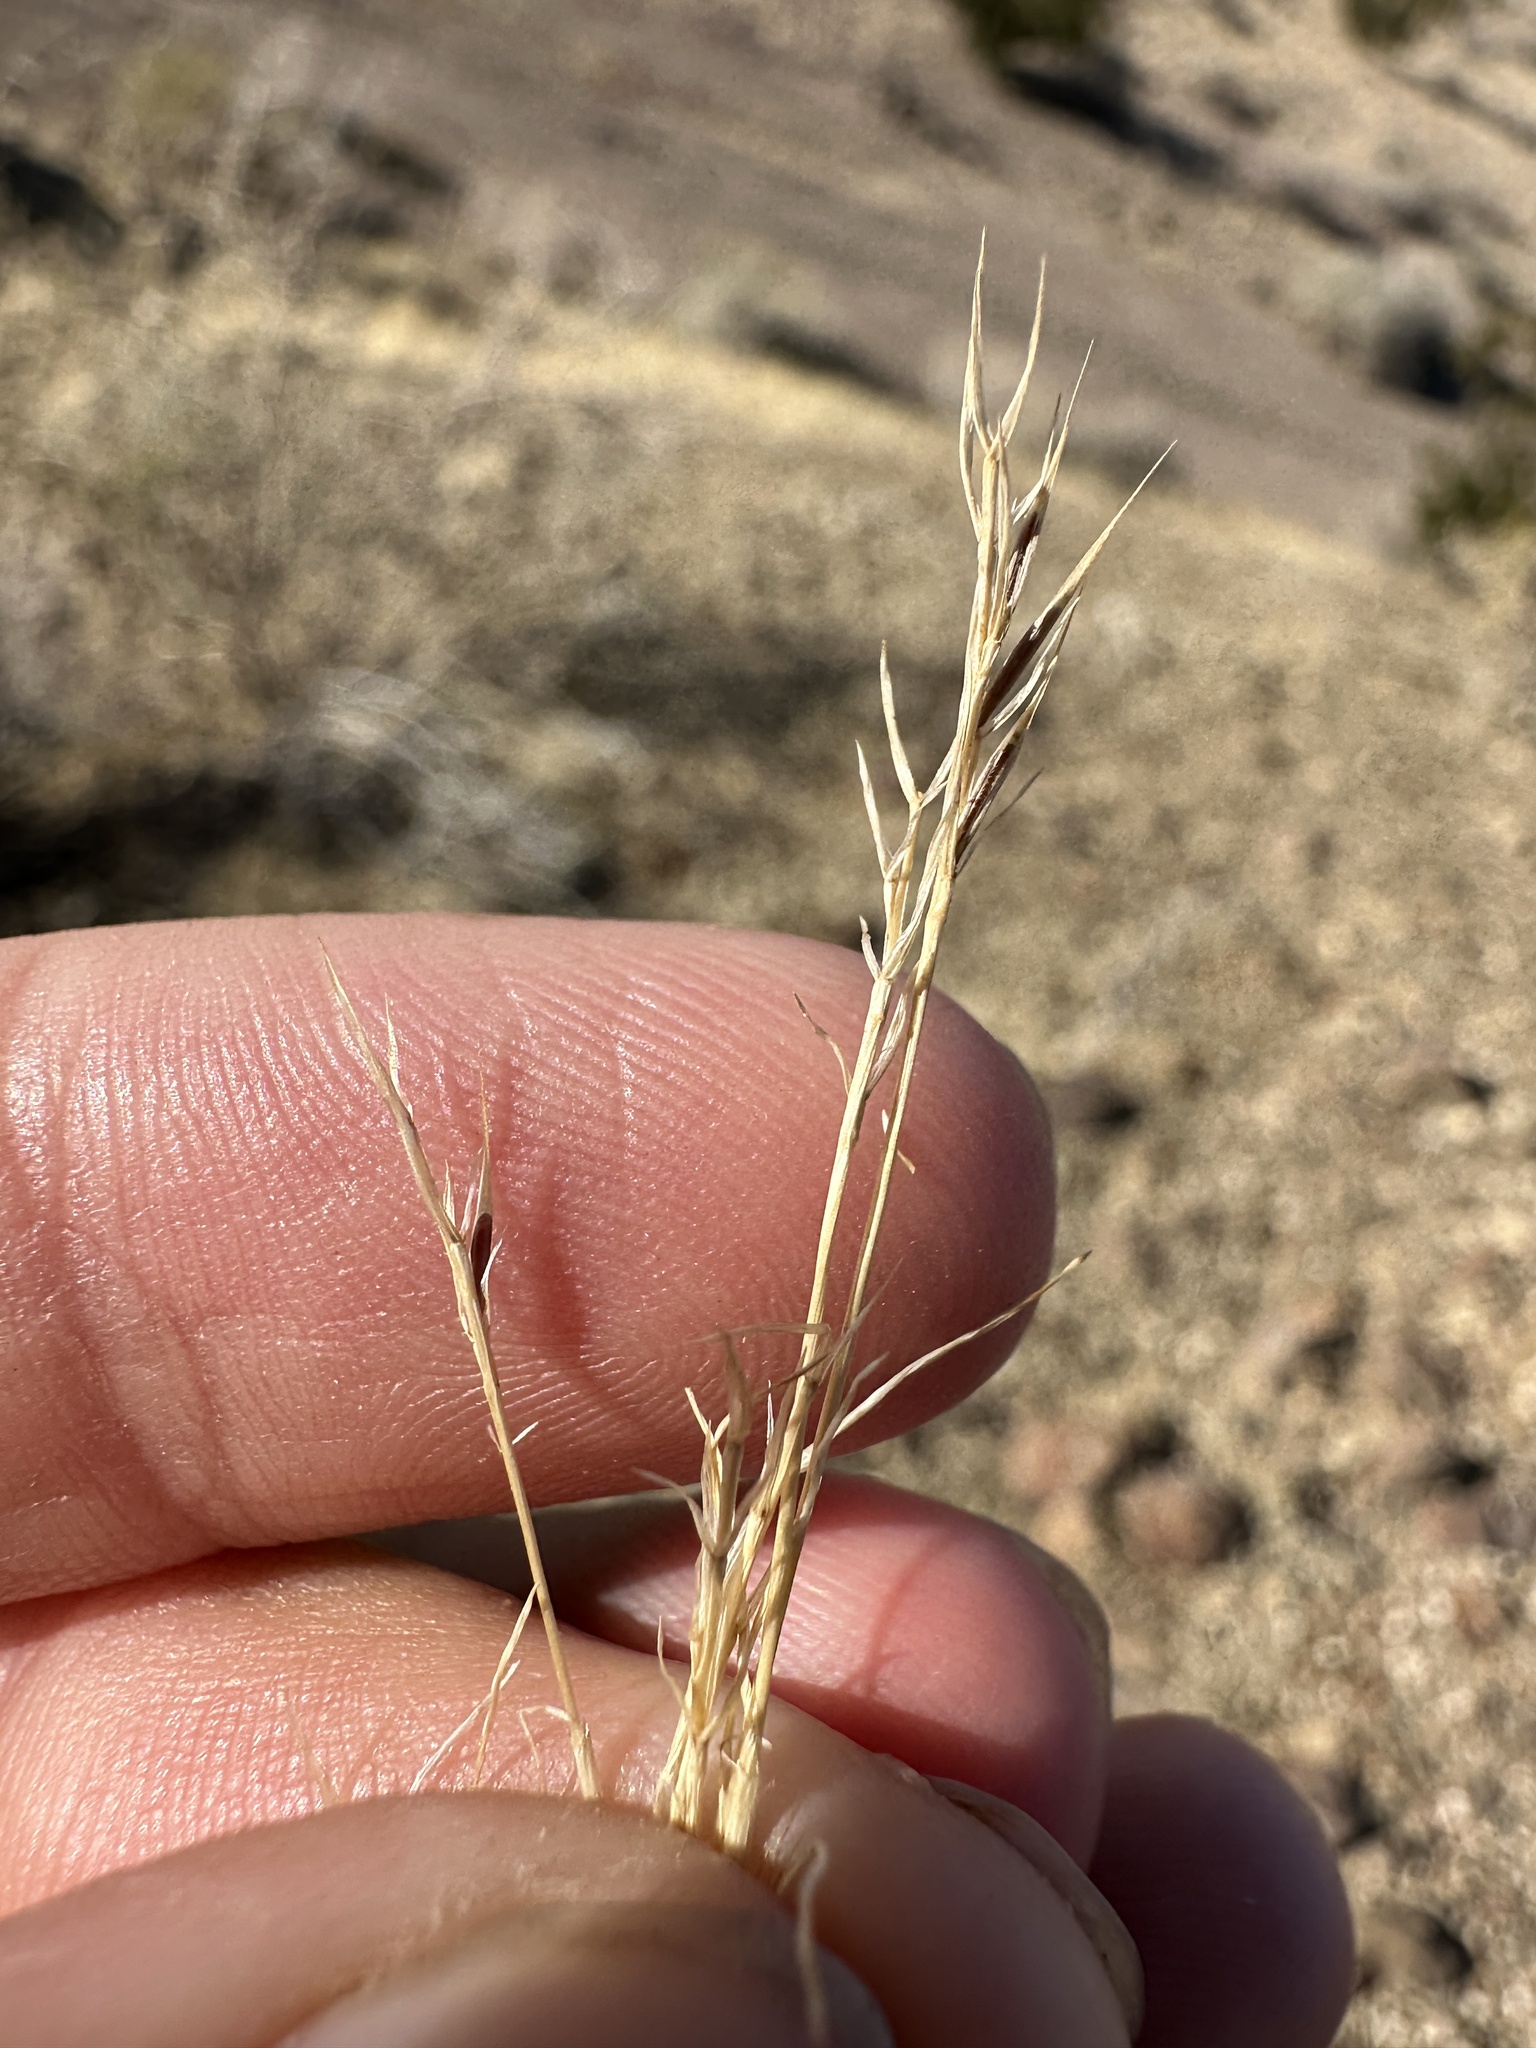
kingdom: Plantae
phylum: Tracheophyta
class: Liliopsida
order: Poales
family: Poaceae
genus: Festuca
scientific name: Festuca octoflora
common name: Sixweeks grass
